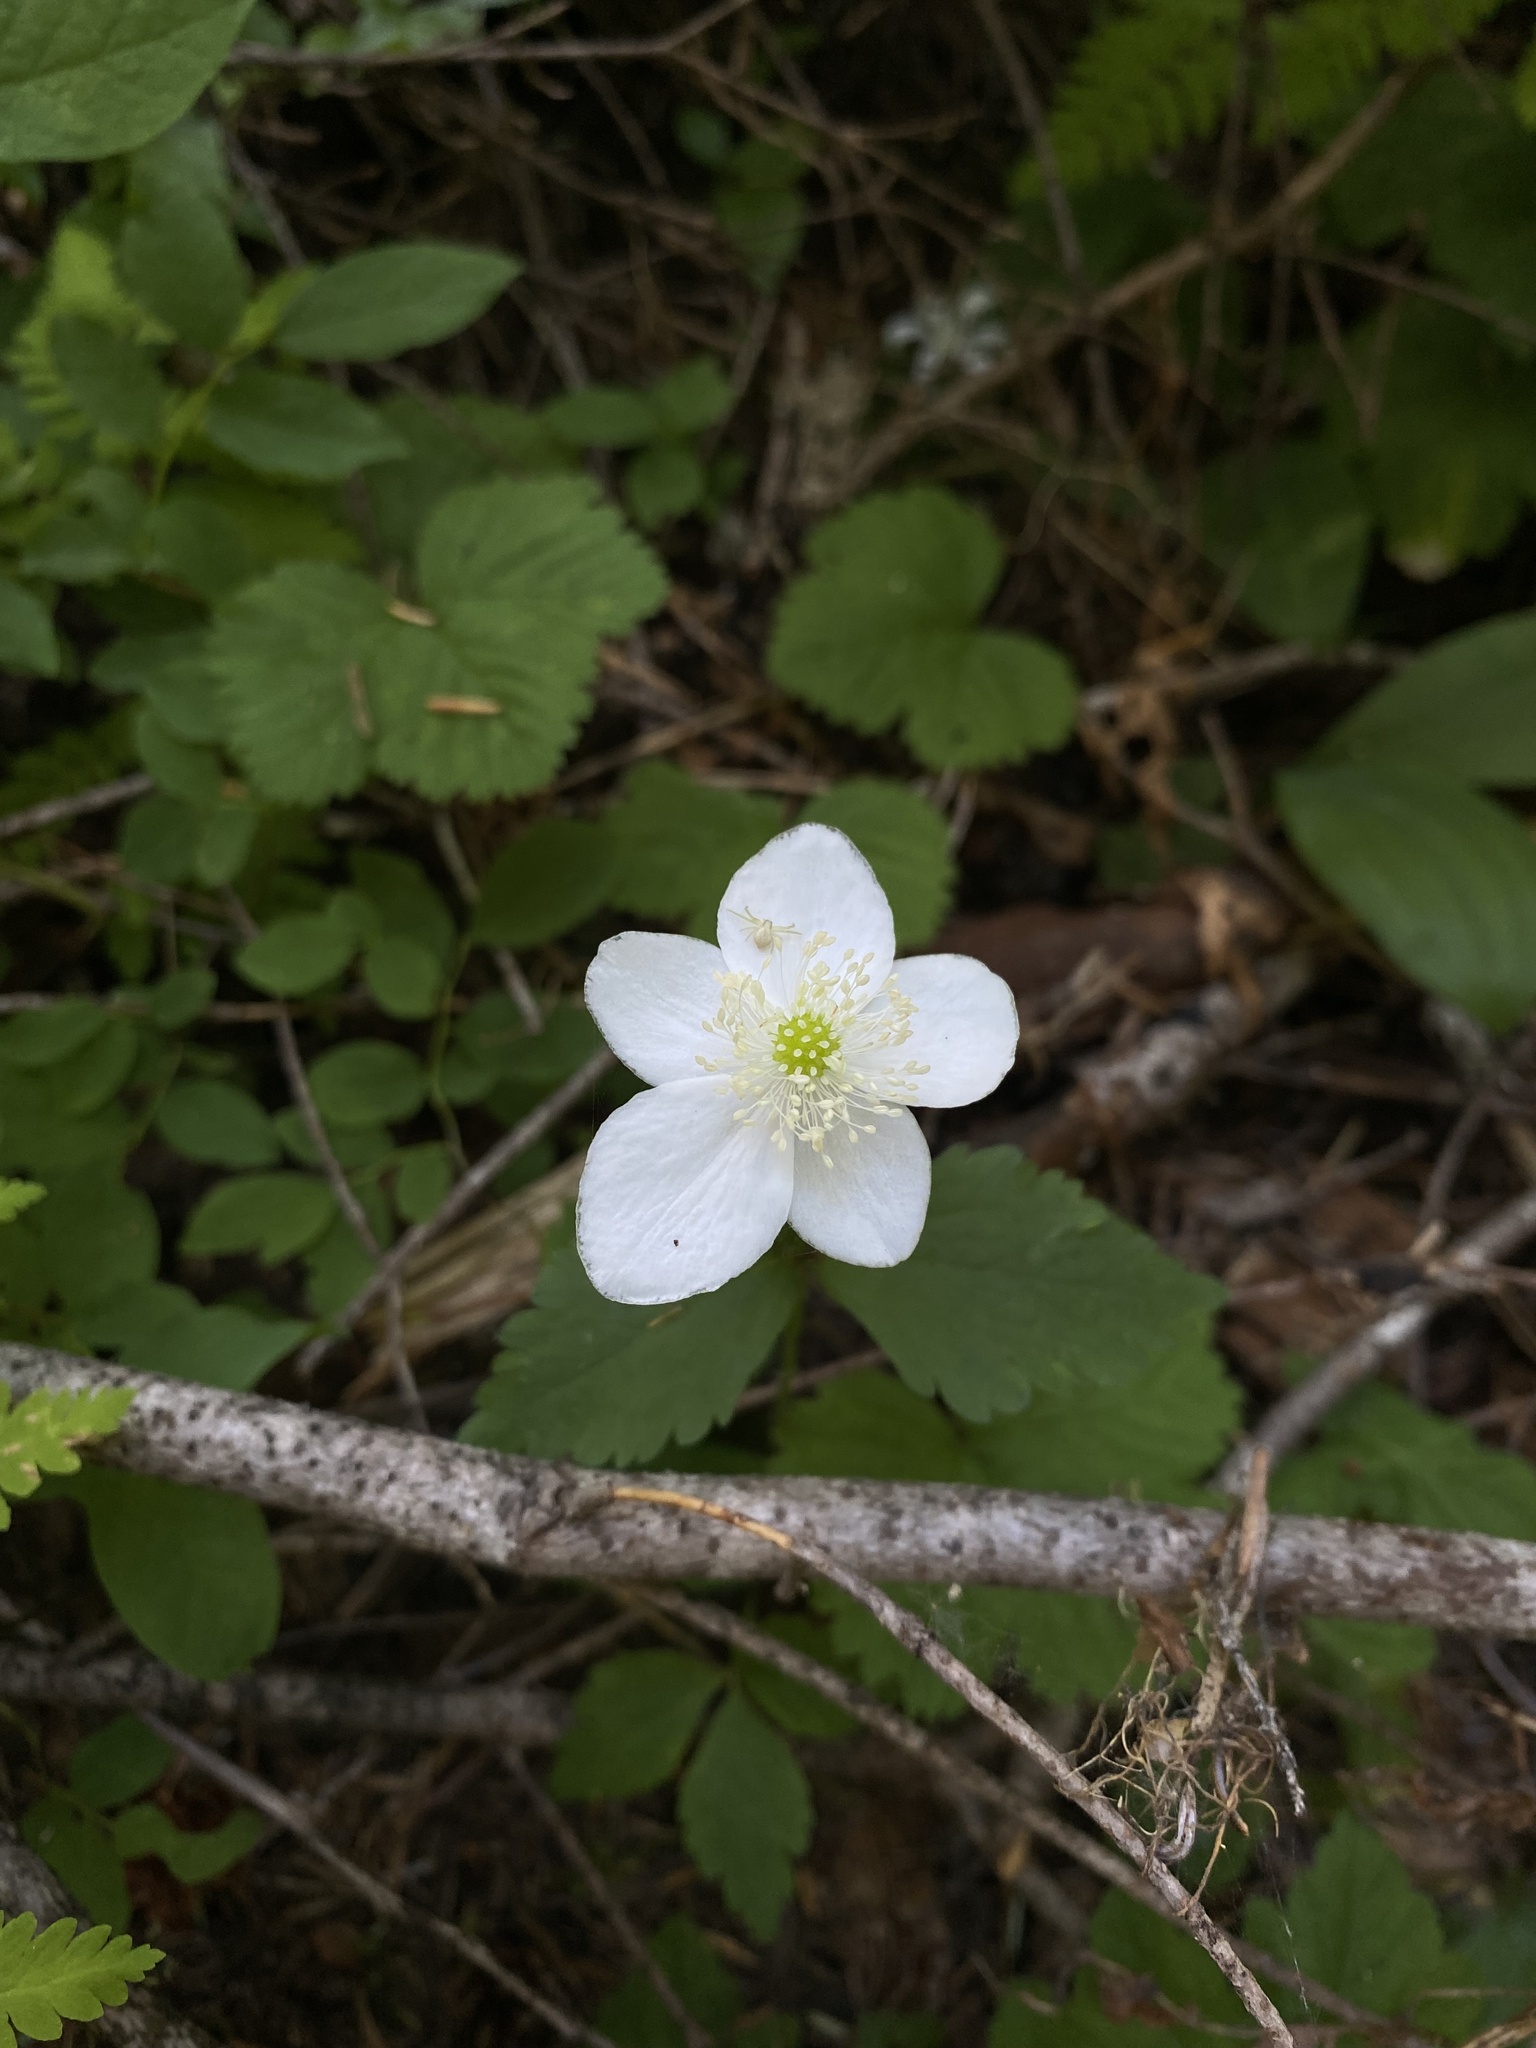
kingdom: Plantae
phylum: Tracheophyta
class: Magnoliopsida
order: Ranunculales
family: Ranunculaceae
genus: Anemonastrum
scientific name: Anemonastrum deltoideum
